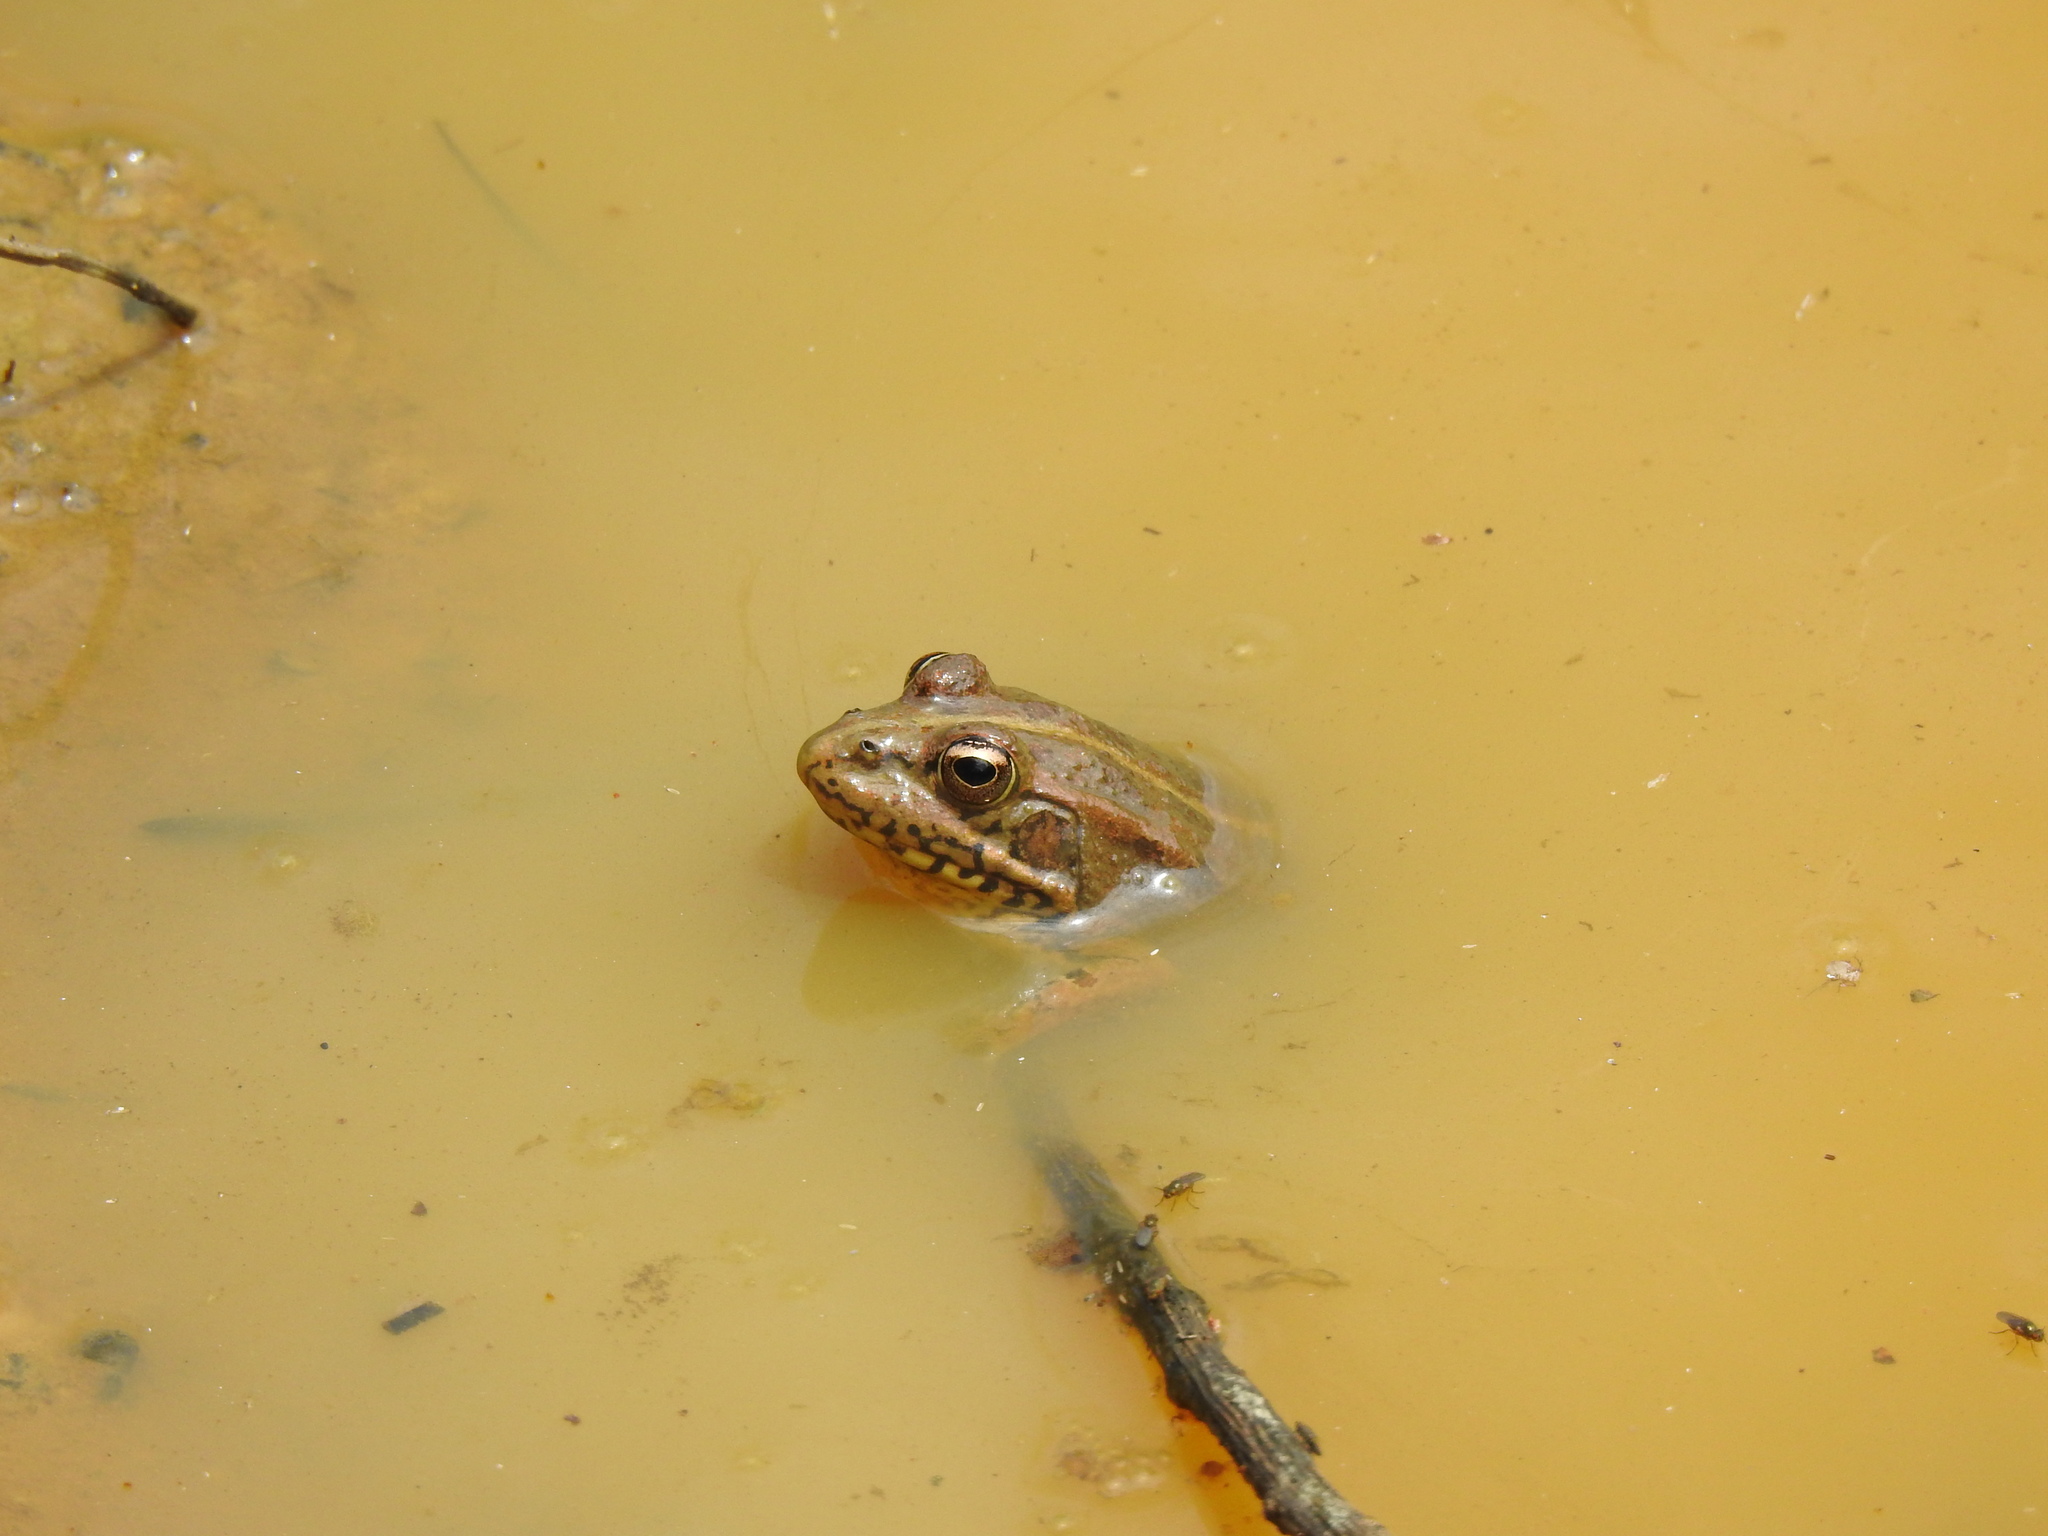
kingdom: Animalia
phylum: Chordata
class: Amphibia
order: Anura
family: Ranidae
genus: Pelophylax
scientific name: Pelophylax perezi
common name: Perez's frog
